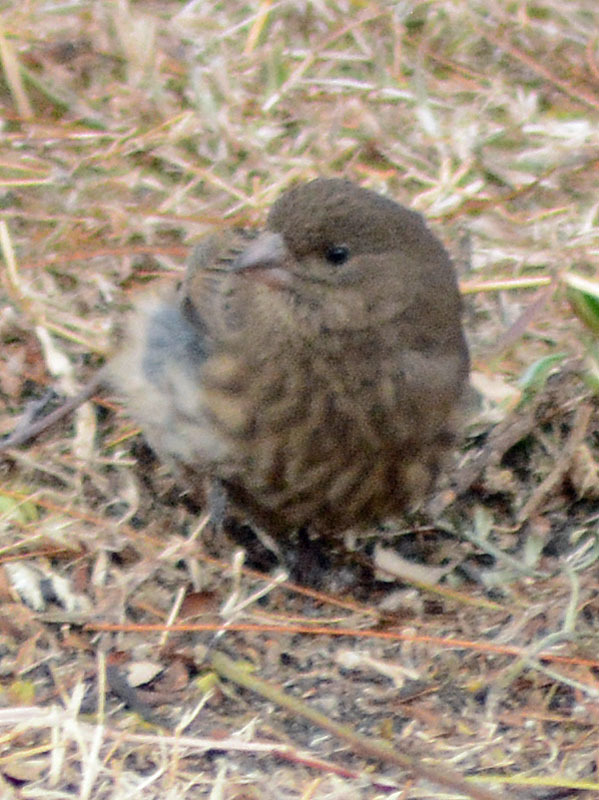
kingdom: Animalia
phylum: Chordata
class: Aves
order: Passeriformes
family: Fringillidae
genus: Haemorhous
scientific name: Haemorhous mexicanus
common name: House finch
